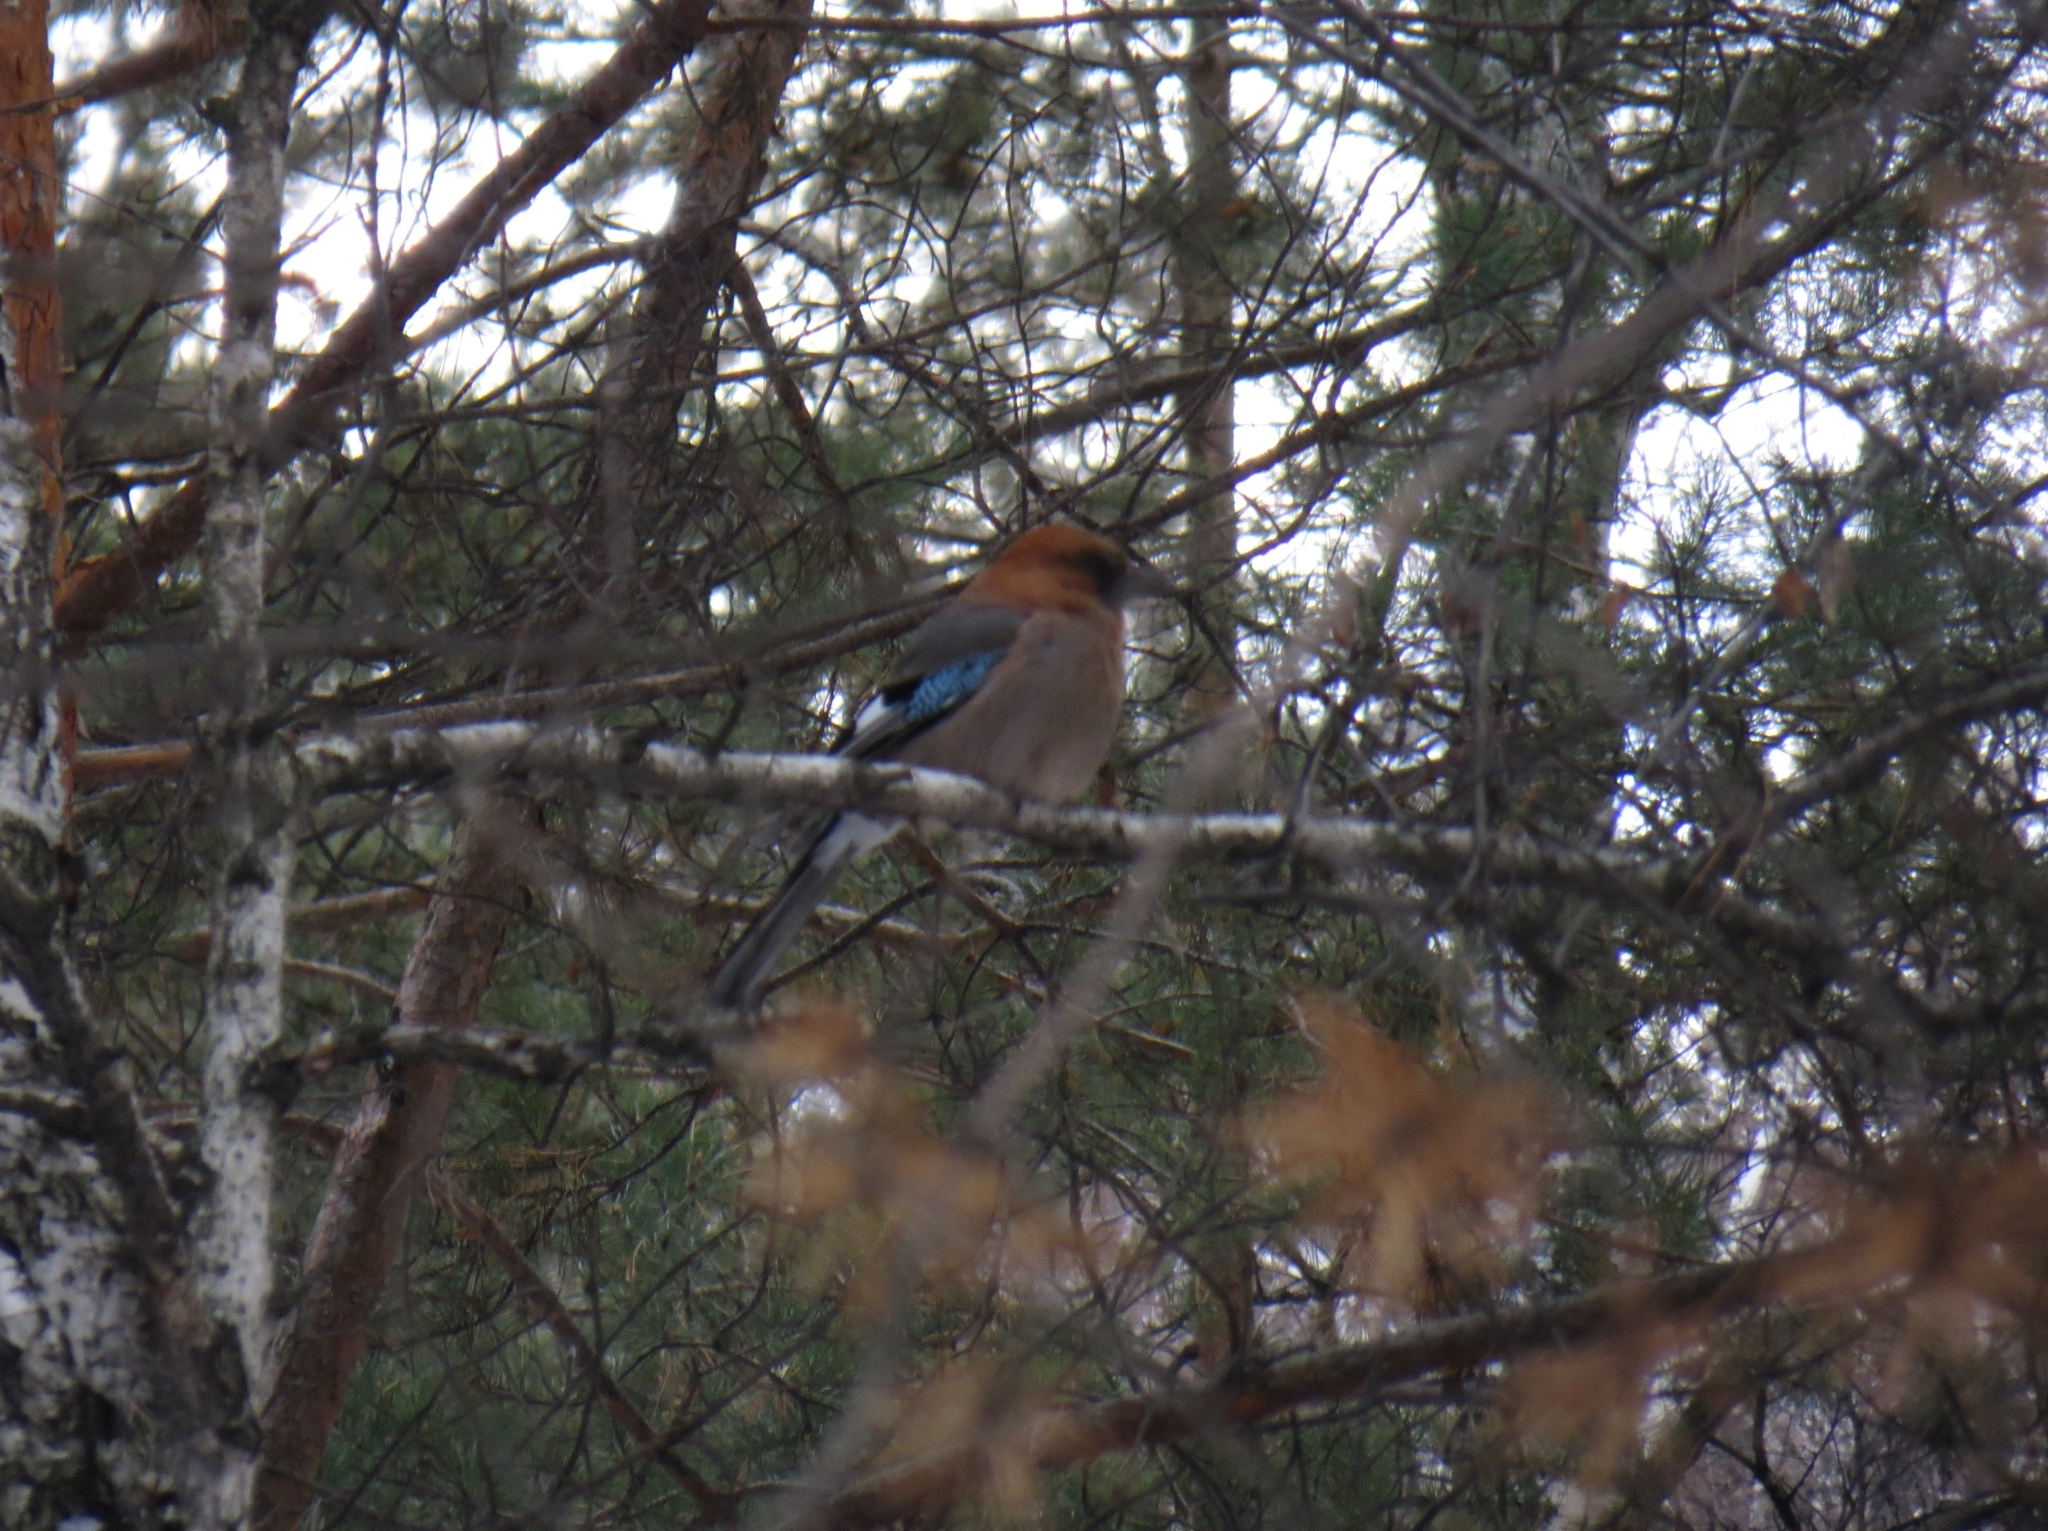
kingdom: Animalia
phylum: Chordata
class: Aves
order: Passeriformes
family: Corvidae
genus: Garrulus
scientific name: Garrulus glandarius
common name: Eurasian jay
